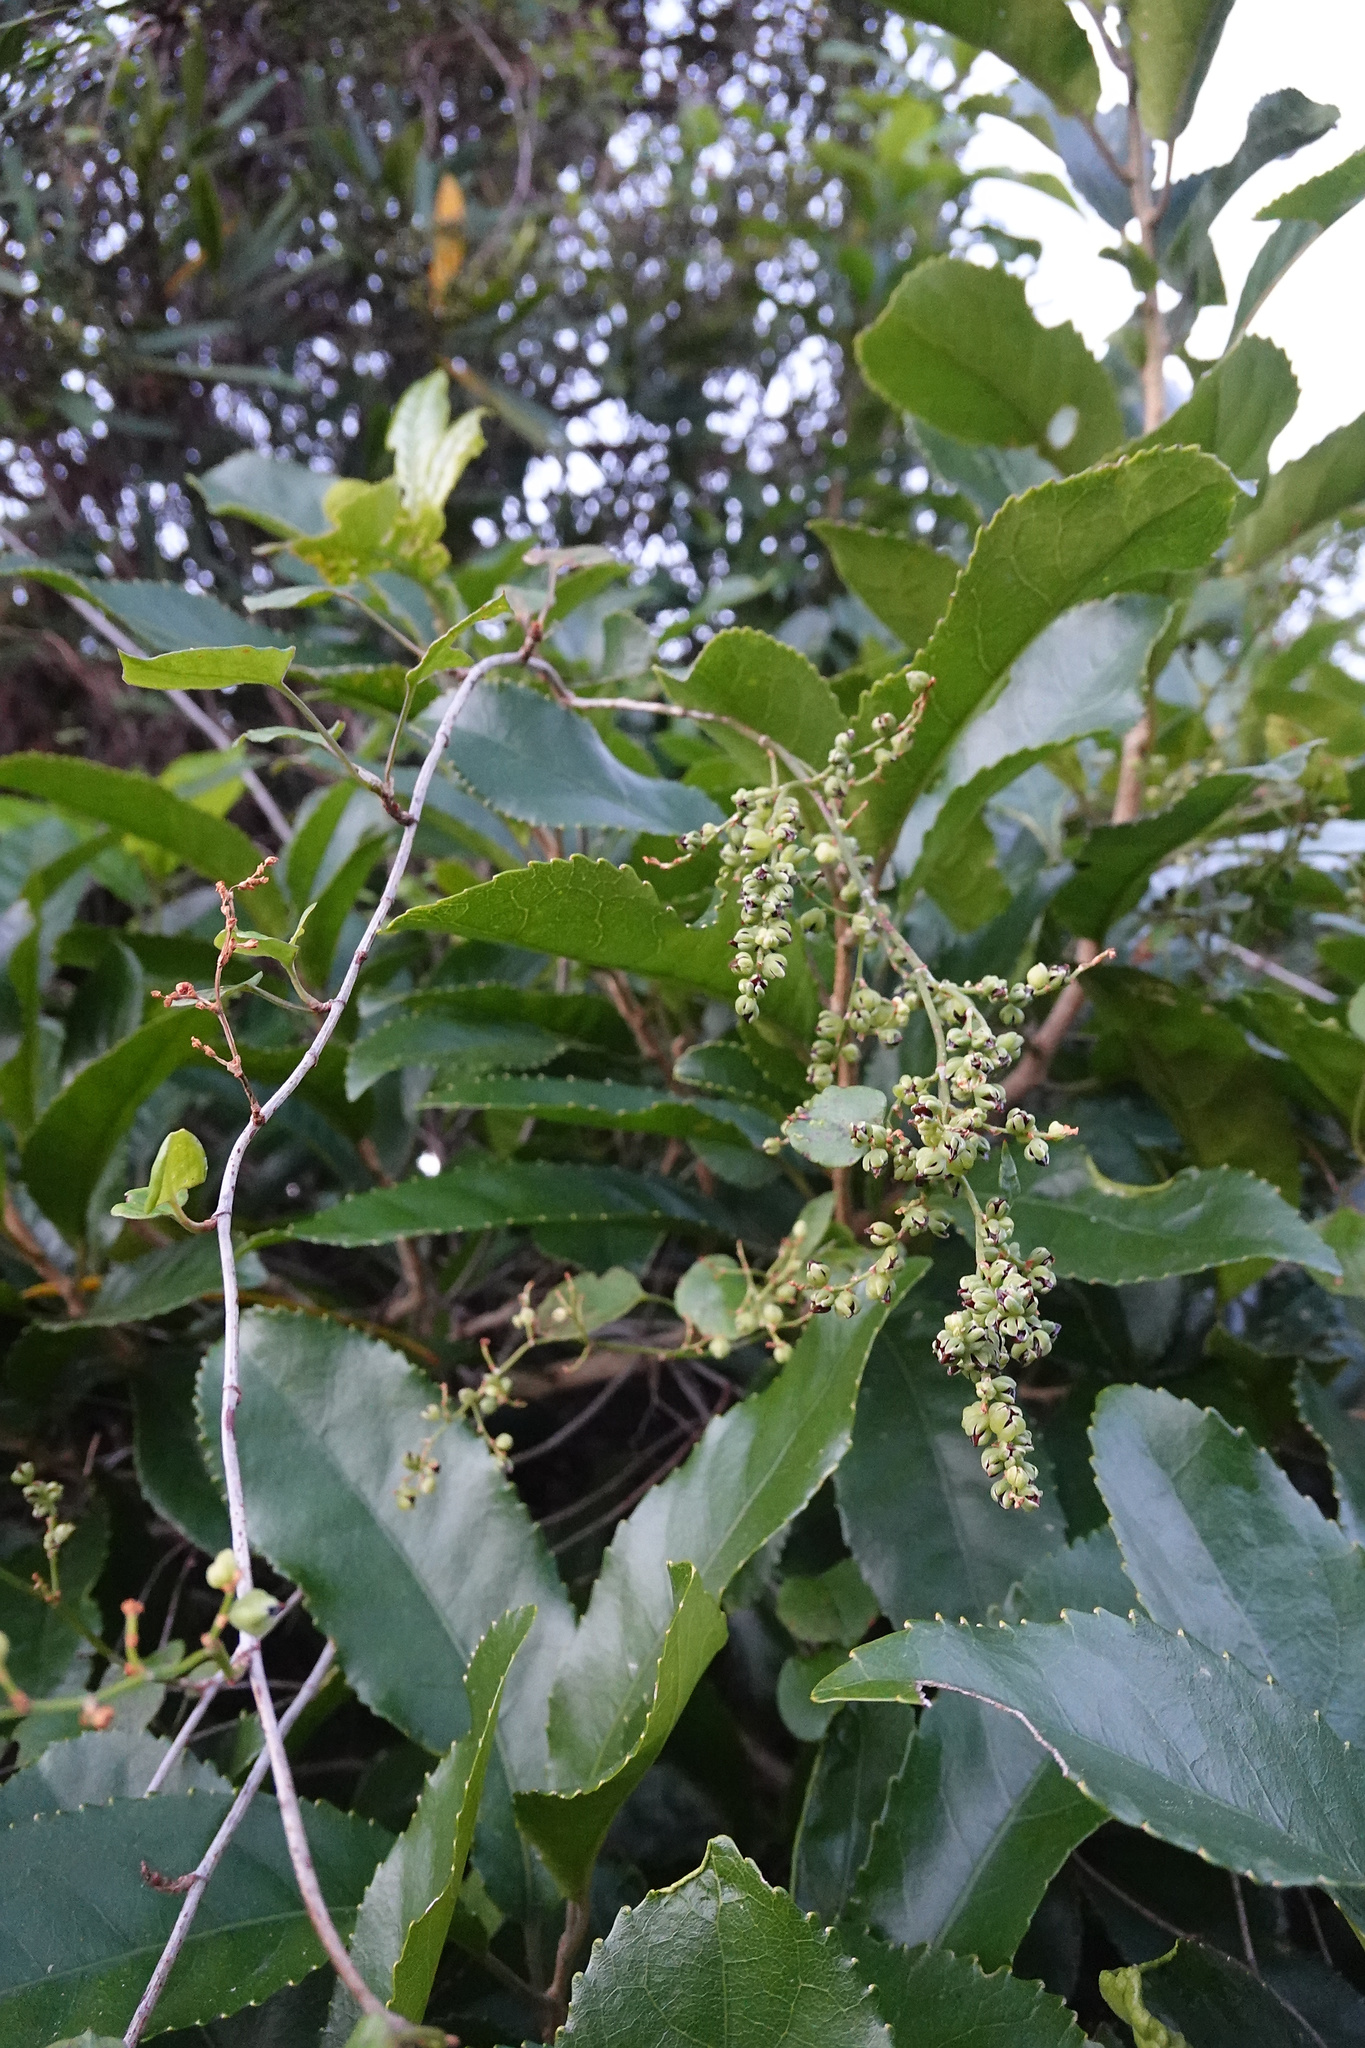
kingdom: Plantae
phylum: Tracheophyta
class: Magnoliopsida
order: Caryophyllales
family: Polygonaceae
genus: Muehlenbeckia
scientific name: Muehlenbeckia australis
